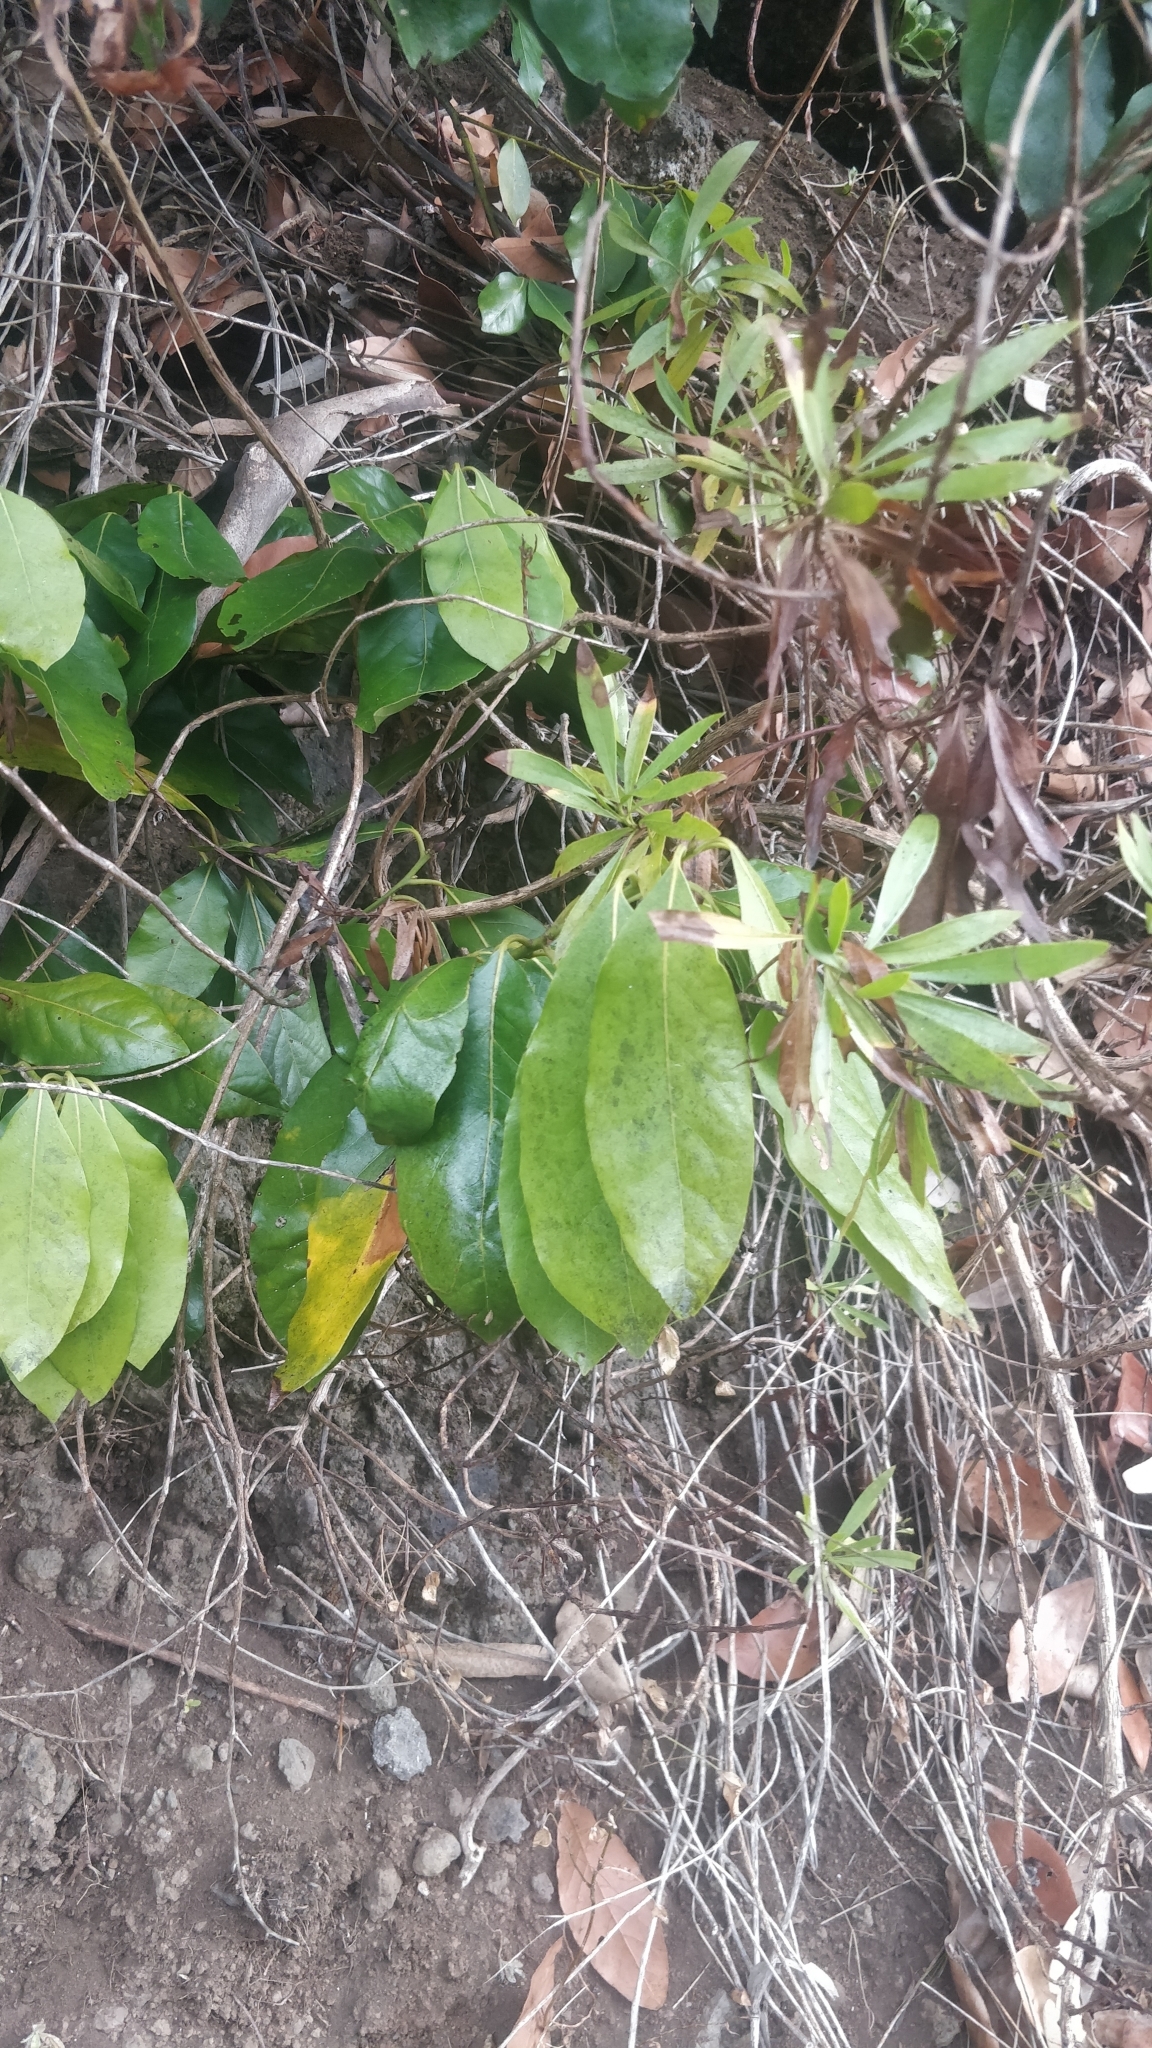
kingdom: Plantae
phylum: Tracheophyta
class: Magnoliopsida
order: Laurales
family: Lauraceae
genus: Laurus
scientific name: Laurus novocanariensis
